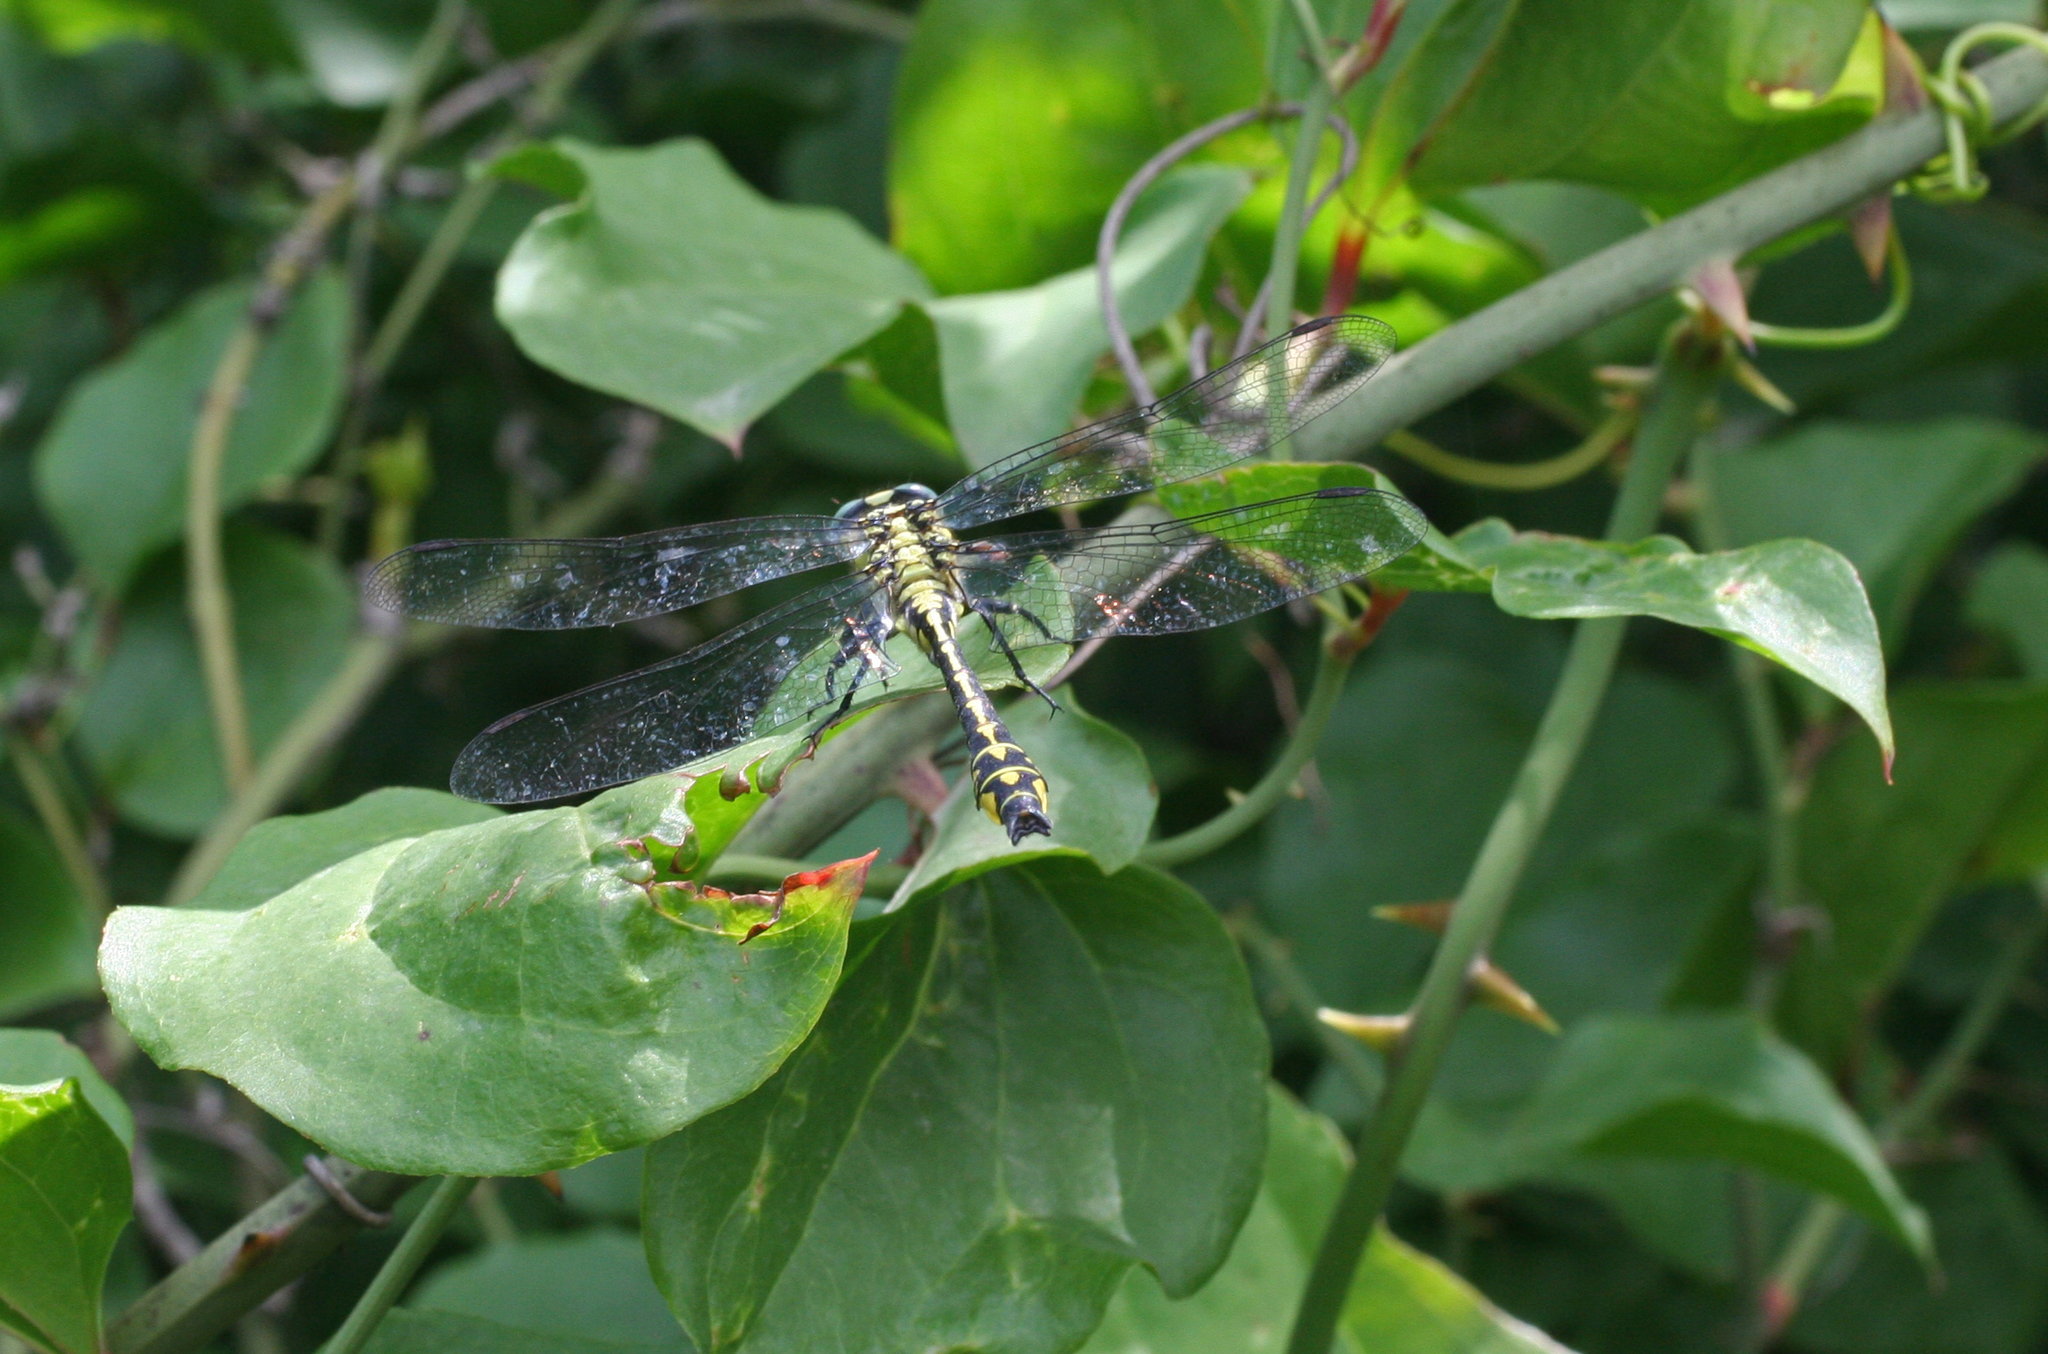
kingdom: Animalia
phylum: Arthropoda
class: Insecta
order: Odonata
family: Gomphidae
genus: Gomphus
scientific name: Gomphus schneiderii
